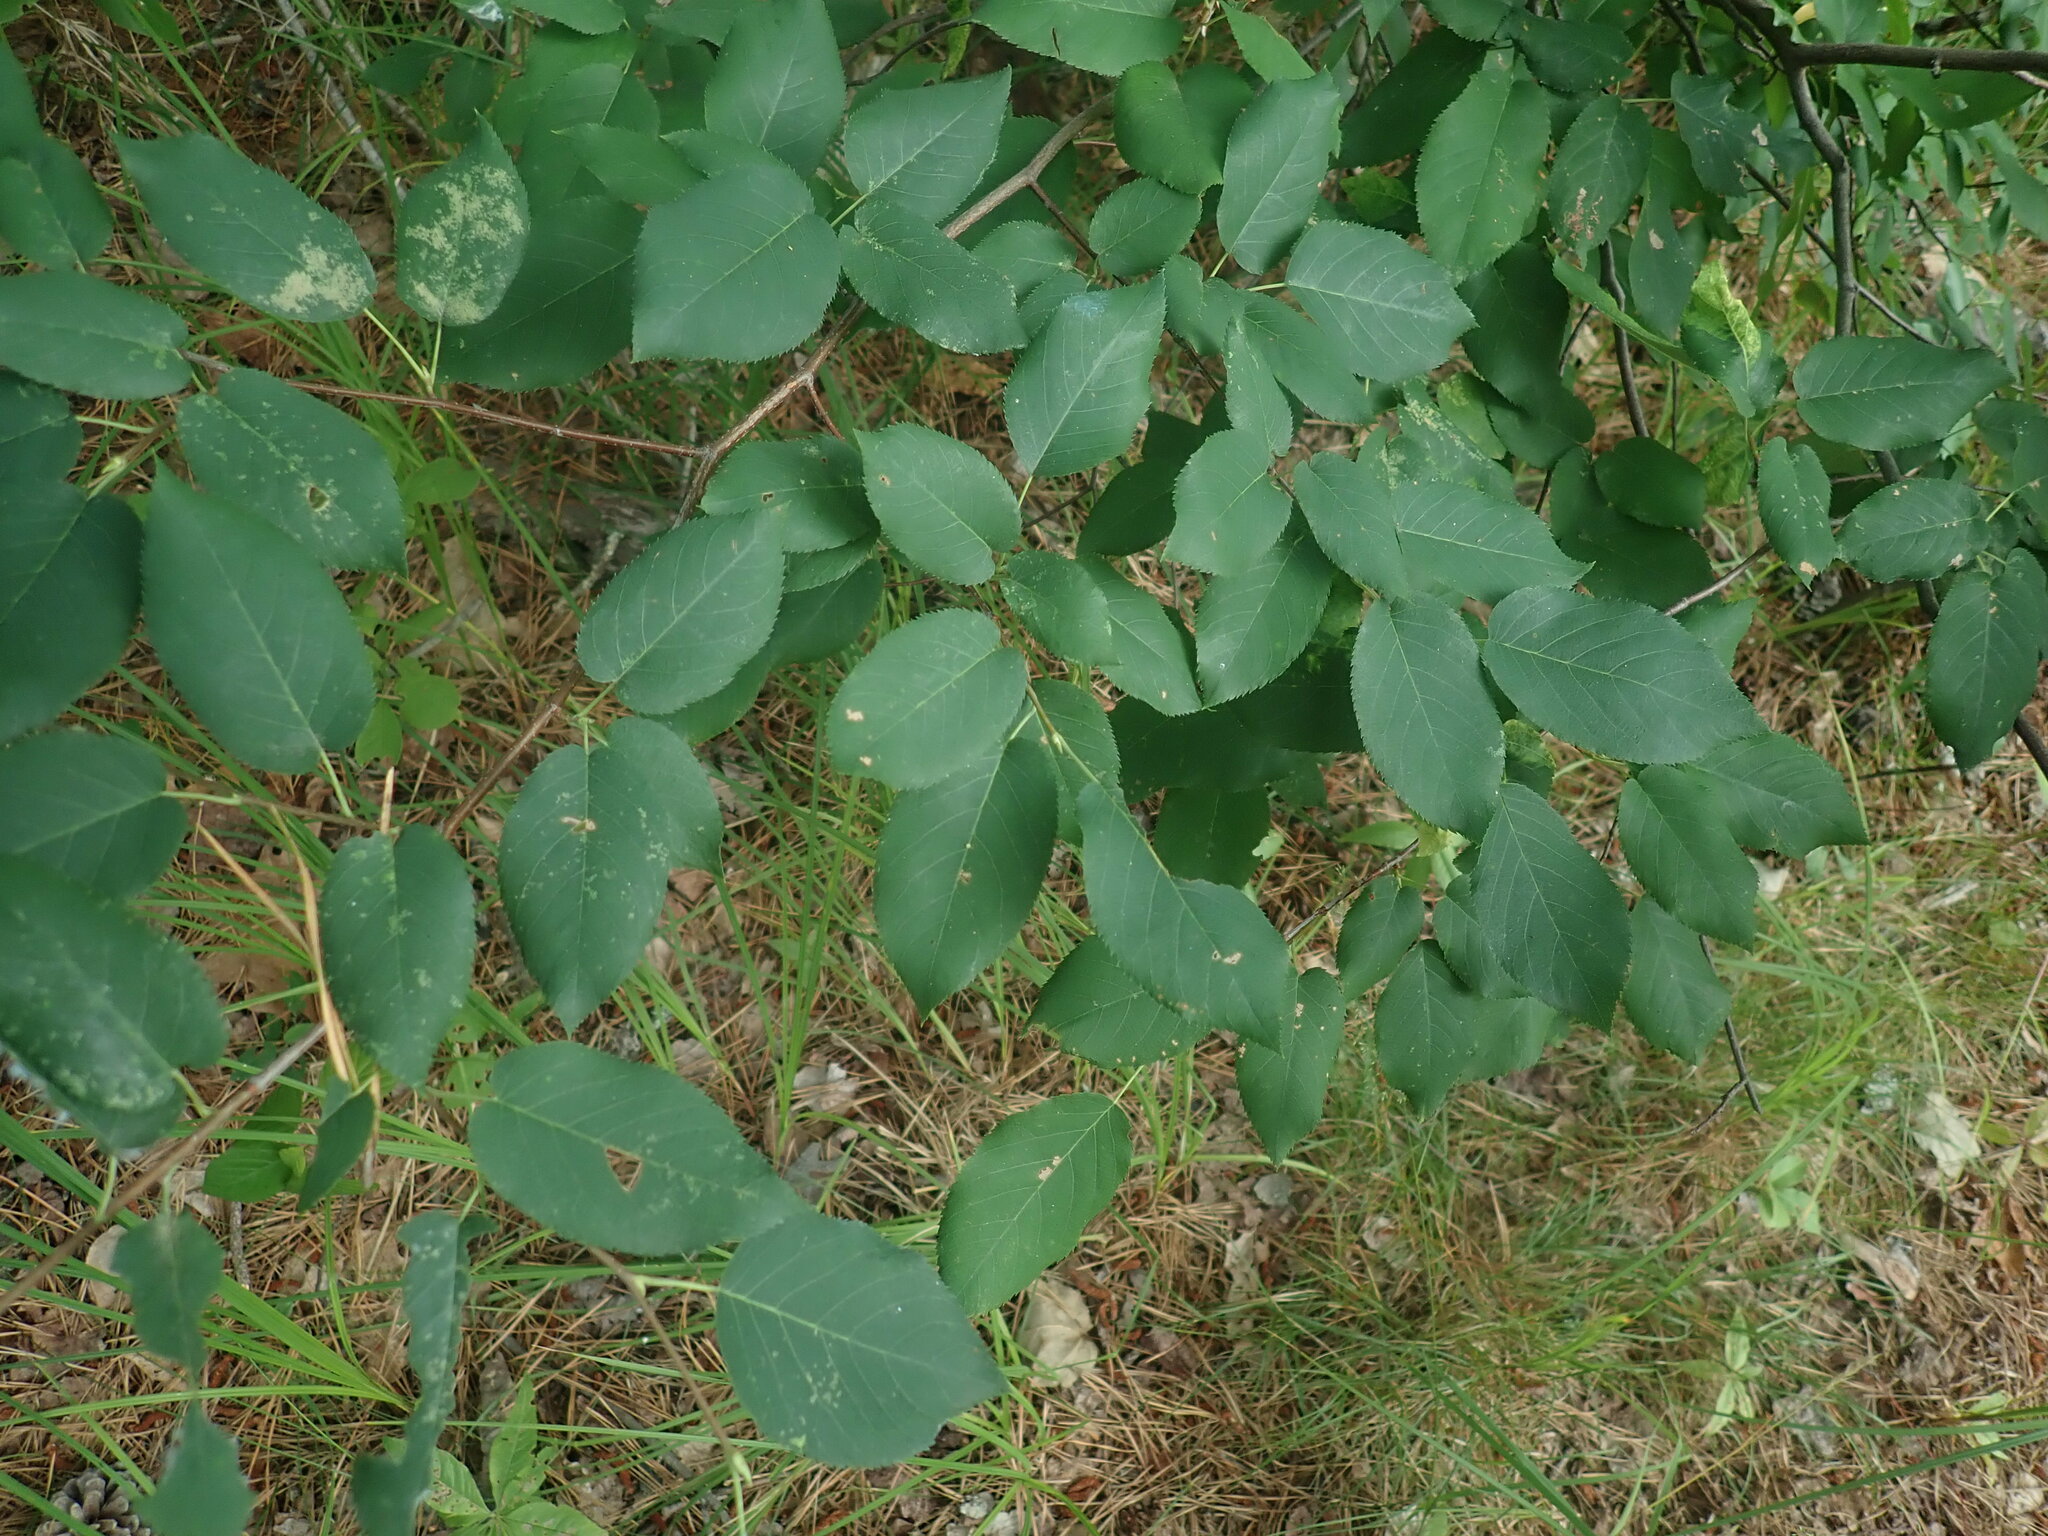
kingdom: Plantae
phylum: Tracheophyta
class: Magnoliopsida
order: Rosales
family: Rosaceae
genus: Amelanchier
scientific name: Amelanchier
